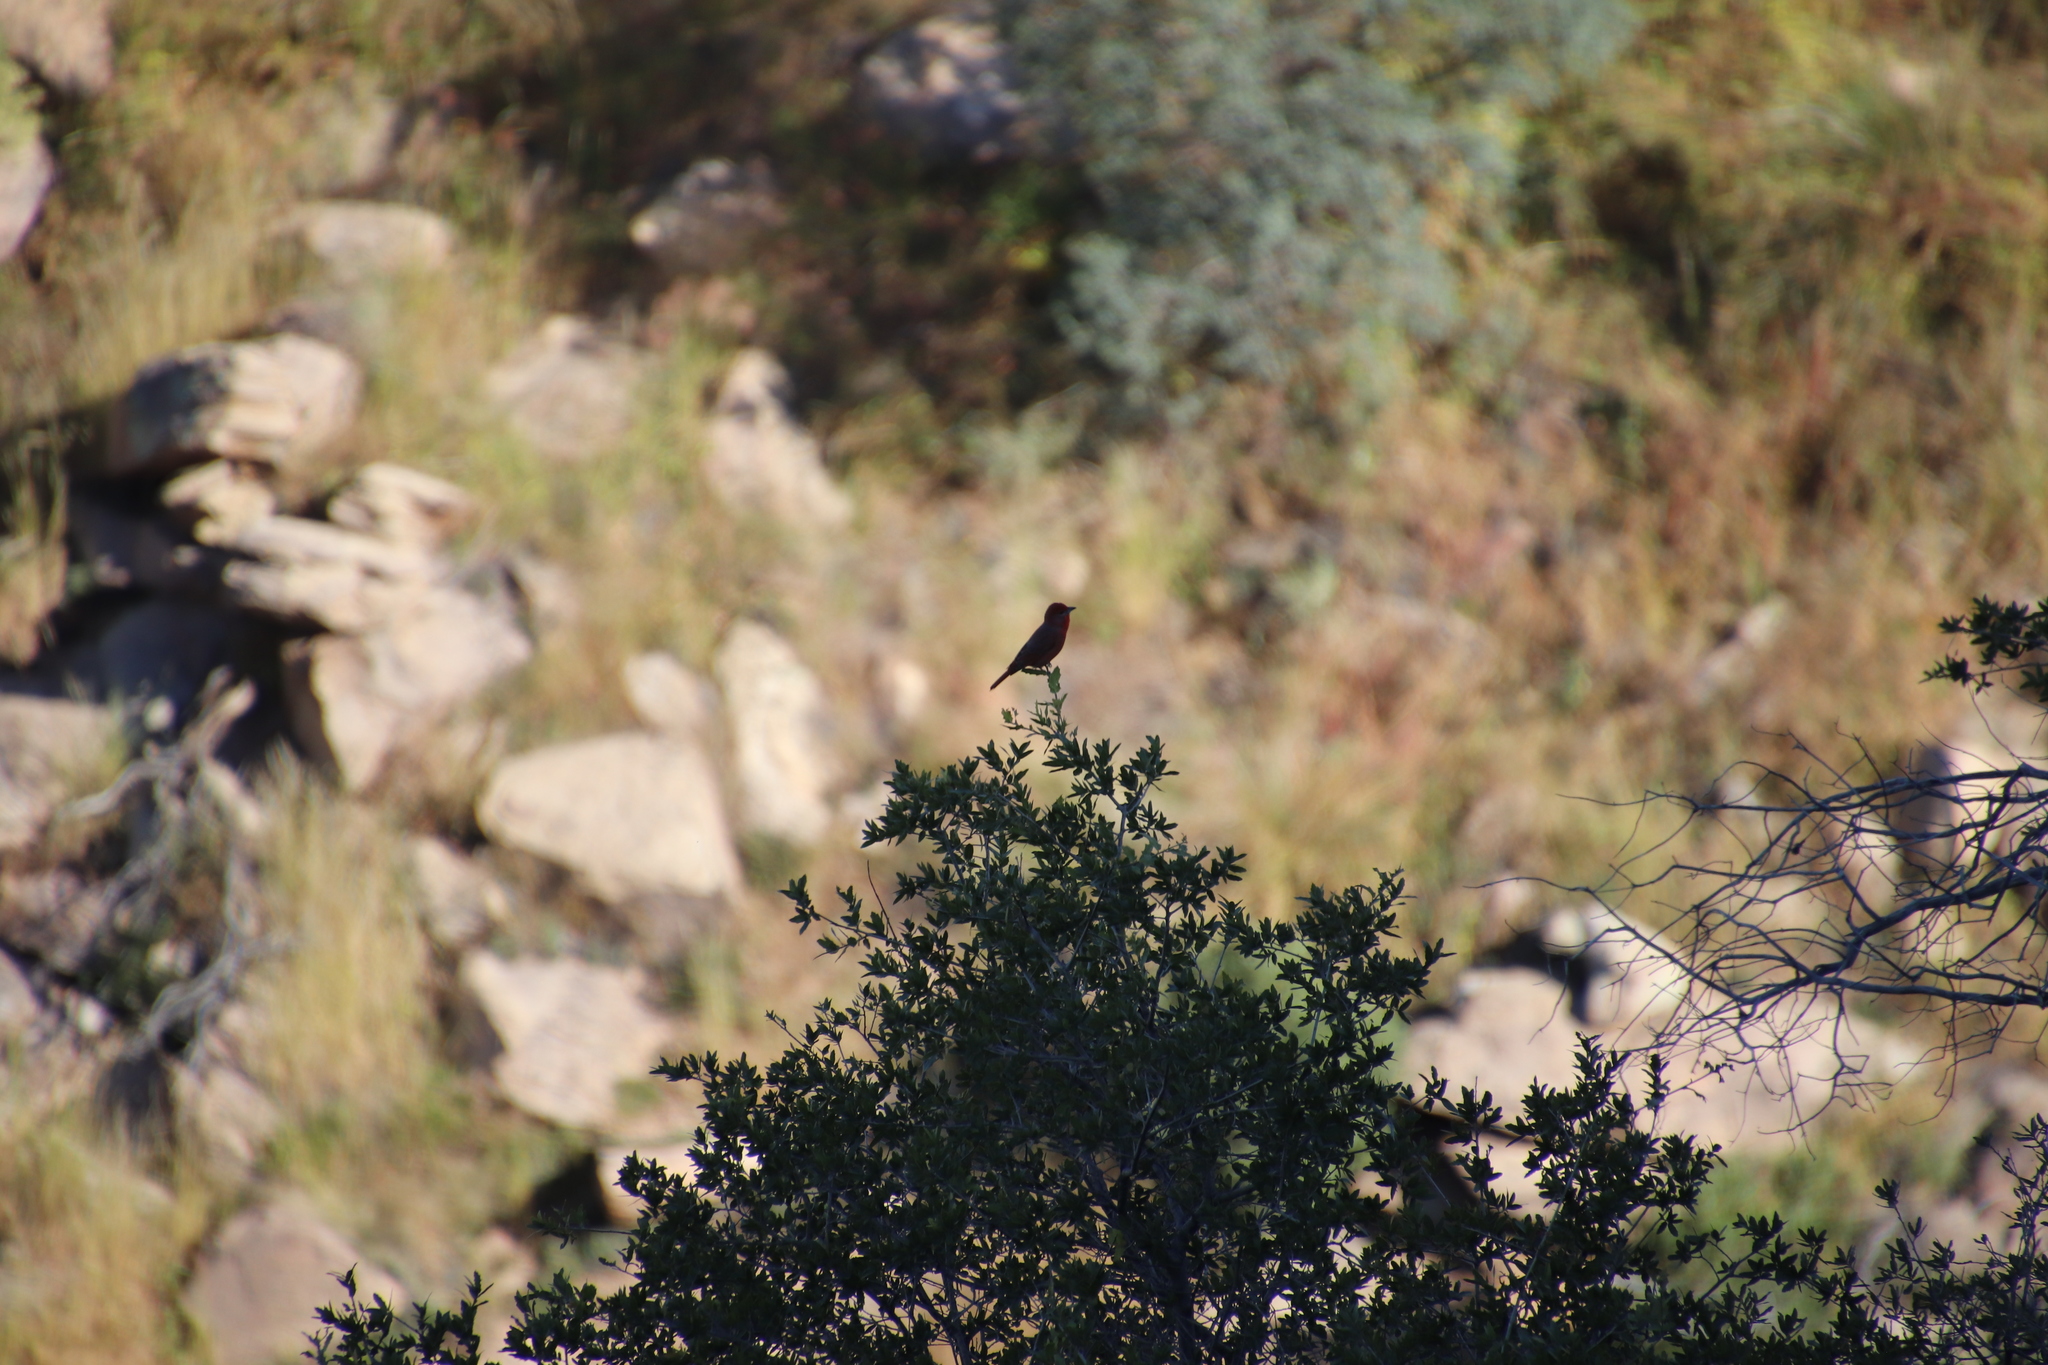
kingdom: Animalia
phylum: Chordata
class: Aves
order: Passeriformes
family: Cardinalidae
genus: Piranga
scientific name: Piranga flava
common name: Red tanager
